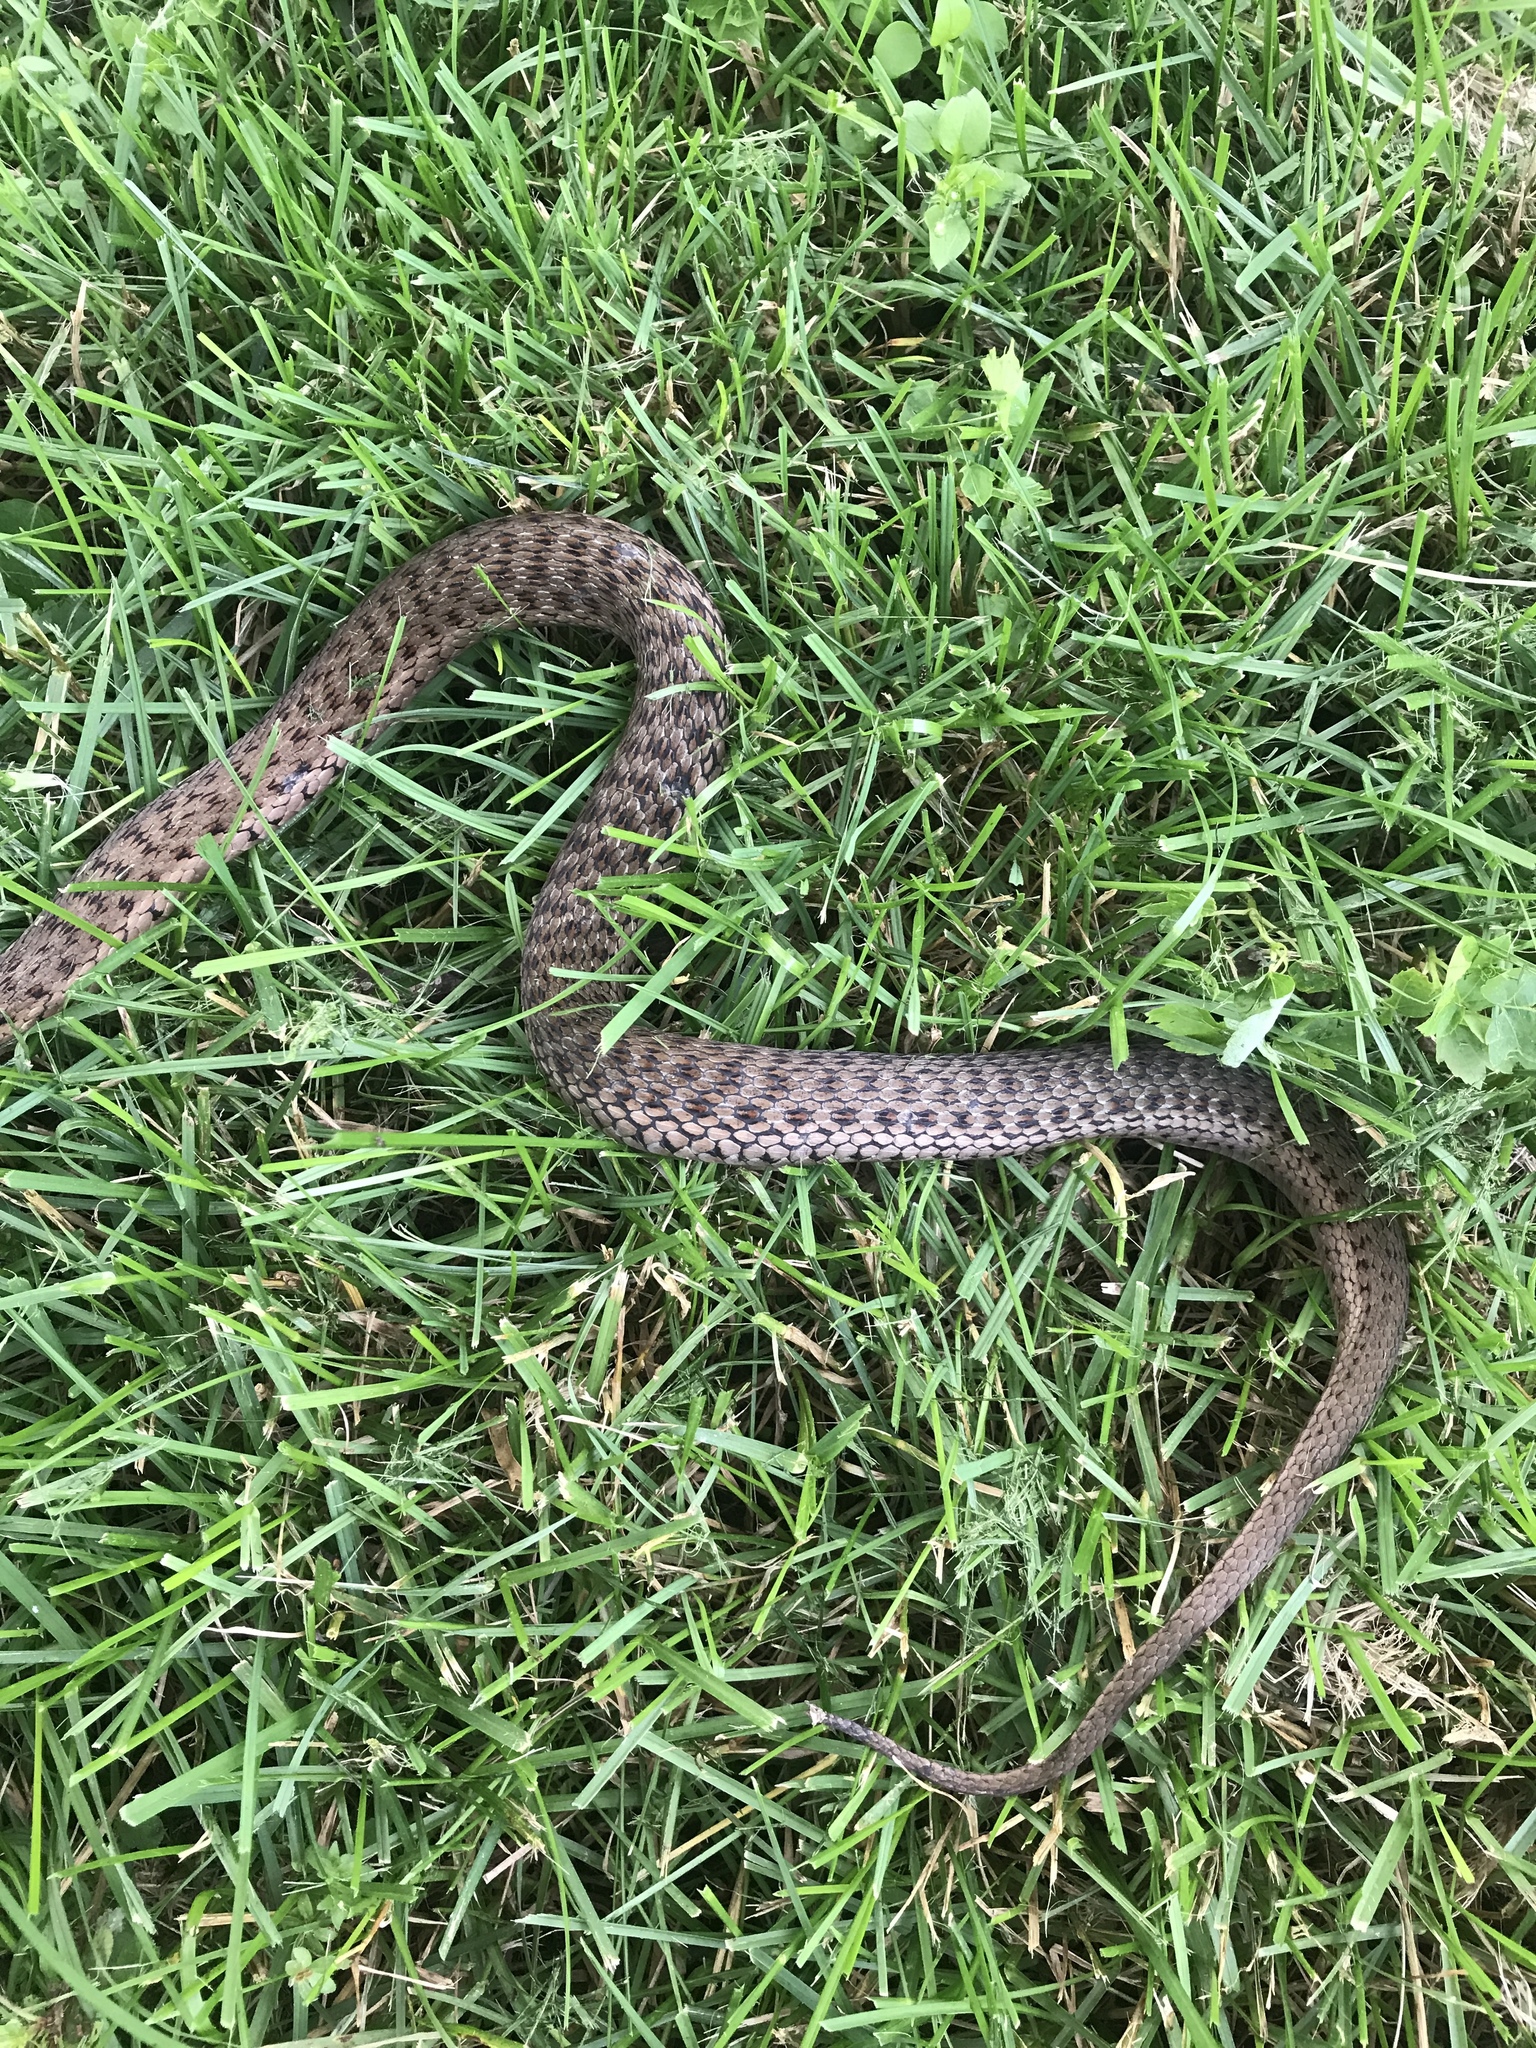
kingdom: Animalia
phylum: Chordata
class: Squamata
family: Colubridae
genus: Thamnophis
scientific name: Thamnophis sirtalis
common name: Common garter snake
